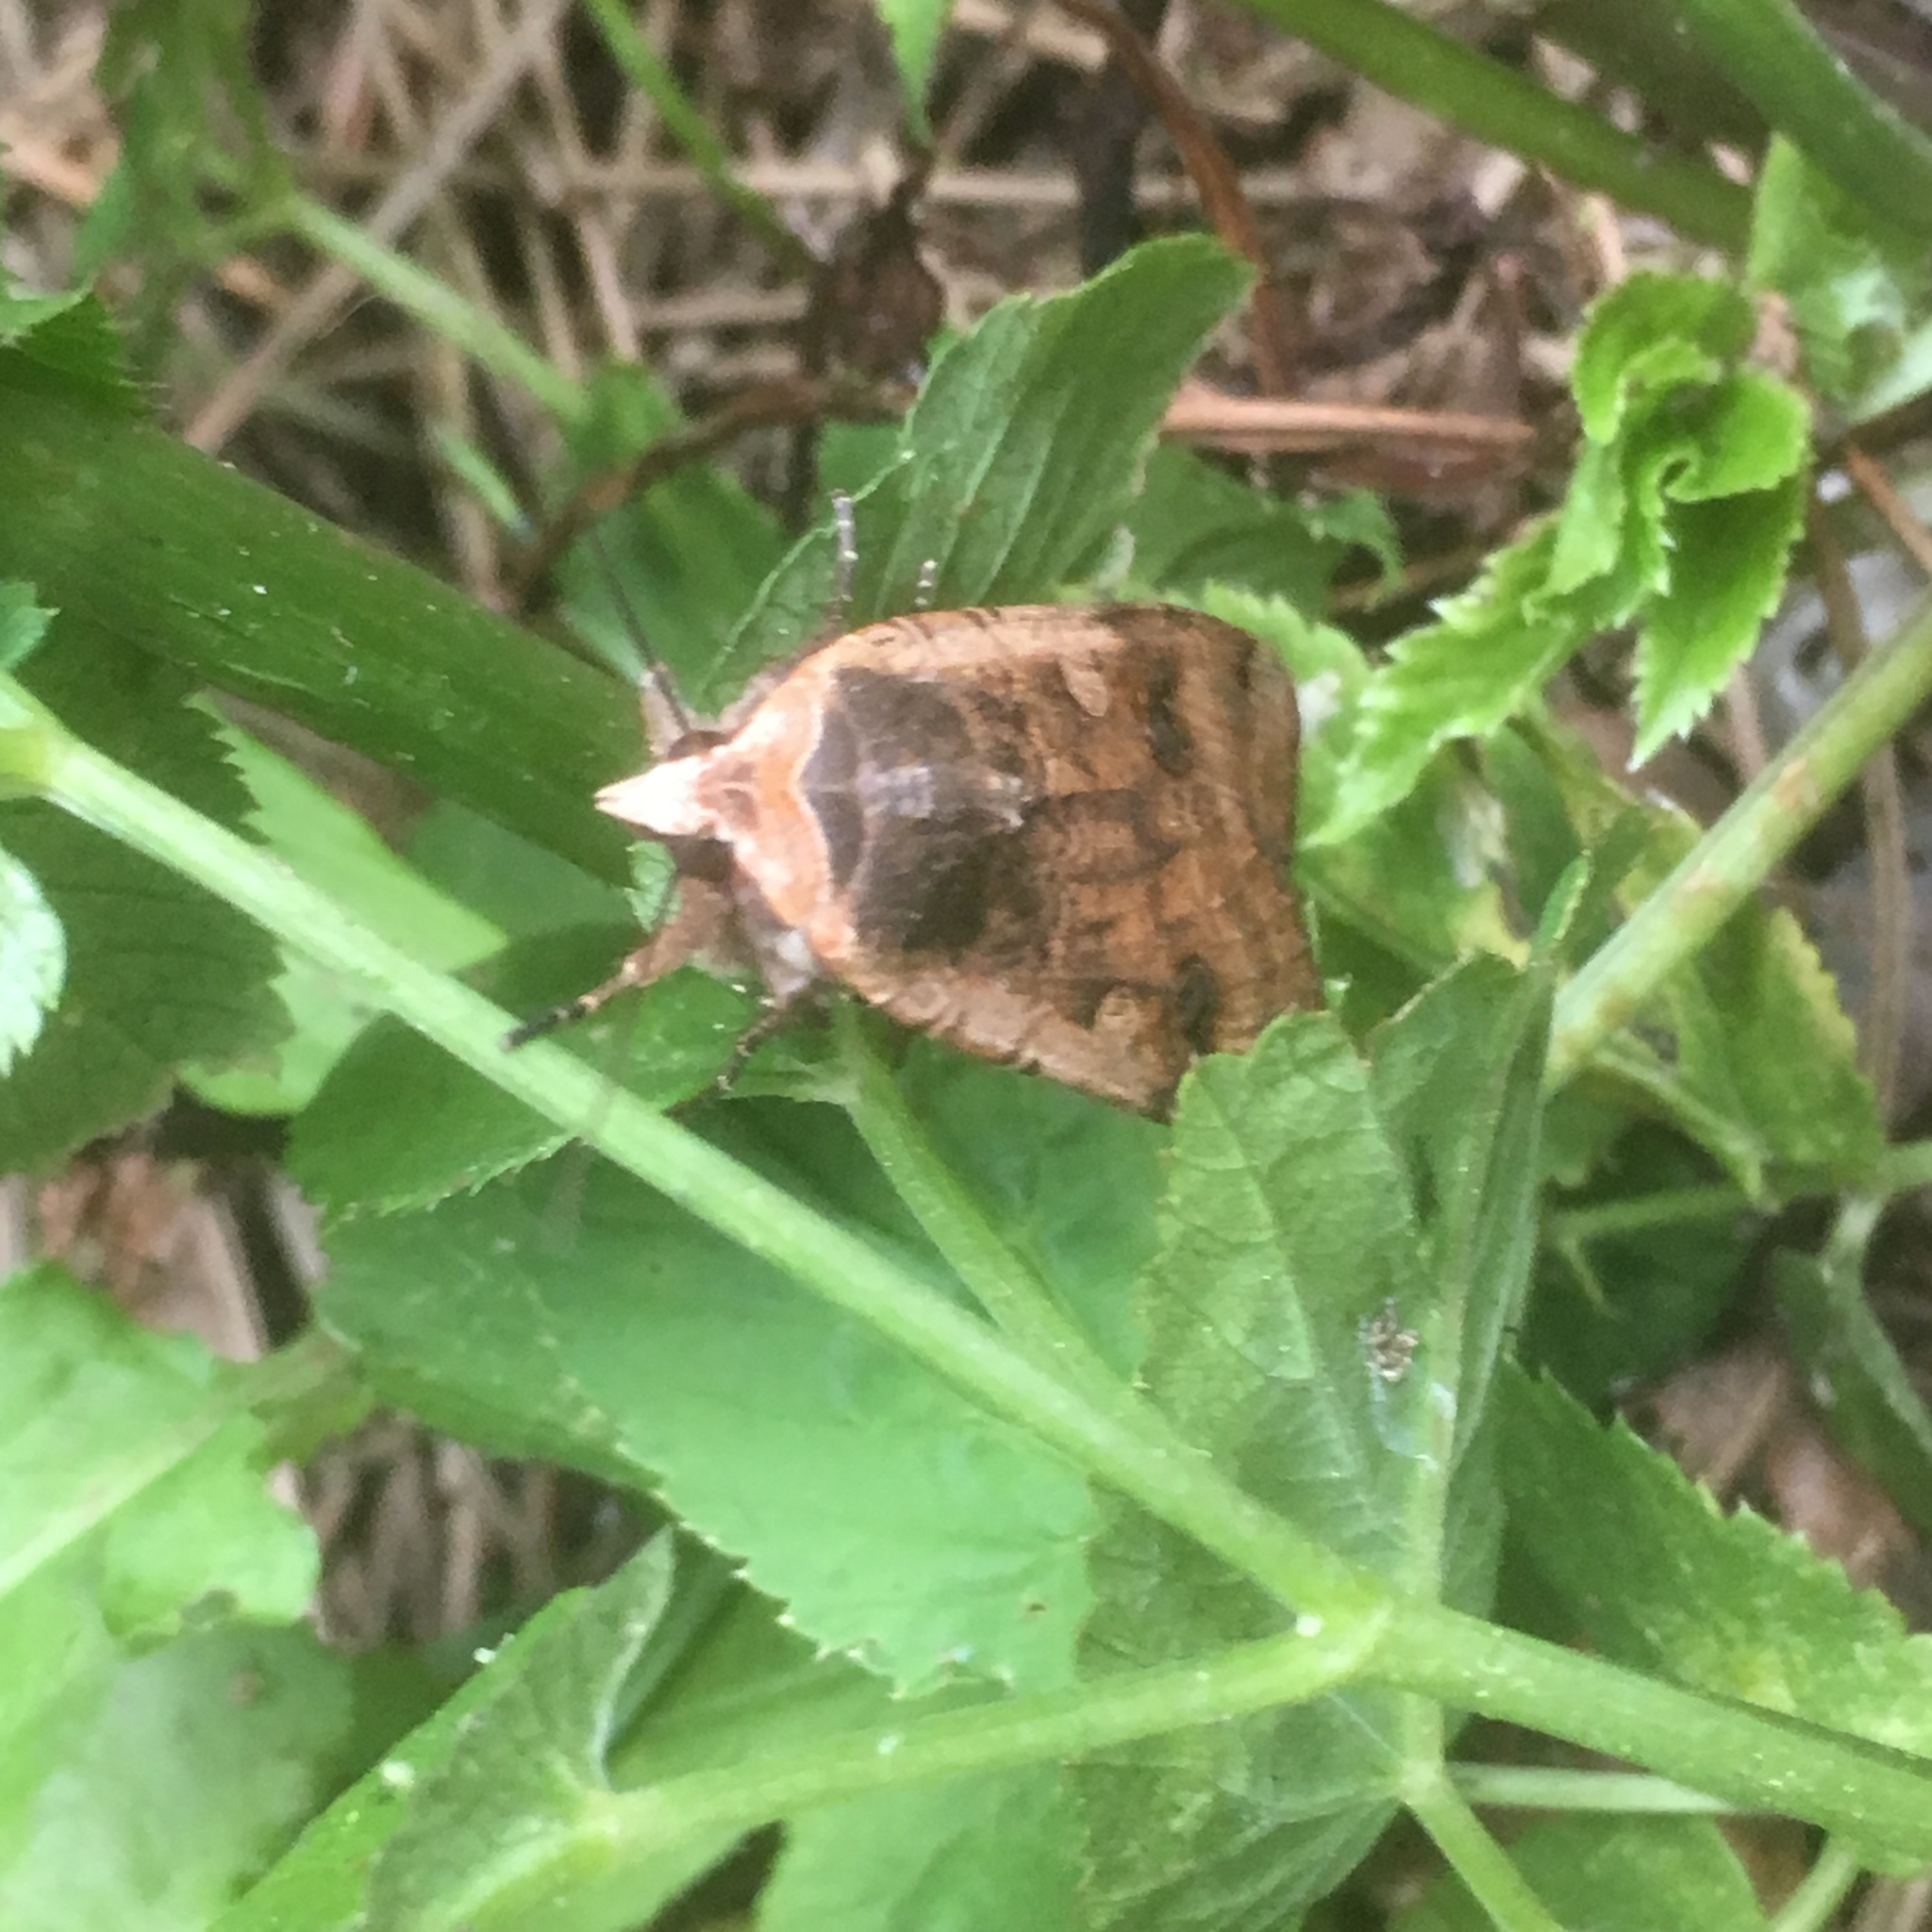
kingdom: Animalia
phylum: Arthropoda
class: Insecta
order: Lepidoptera
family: Noctuidae
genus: Noctua
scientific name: Noctua pronuba
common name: Large yellow underwing
